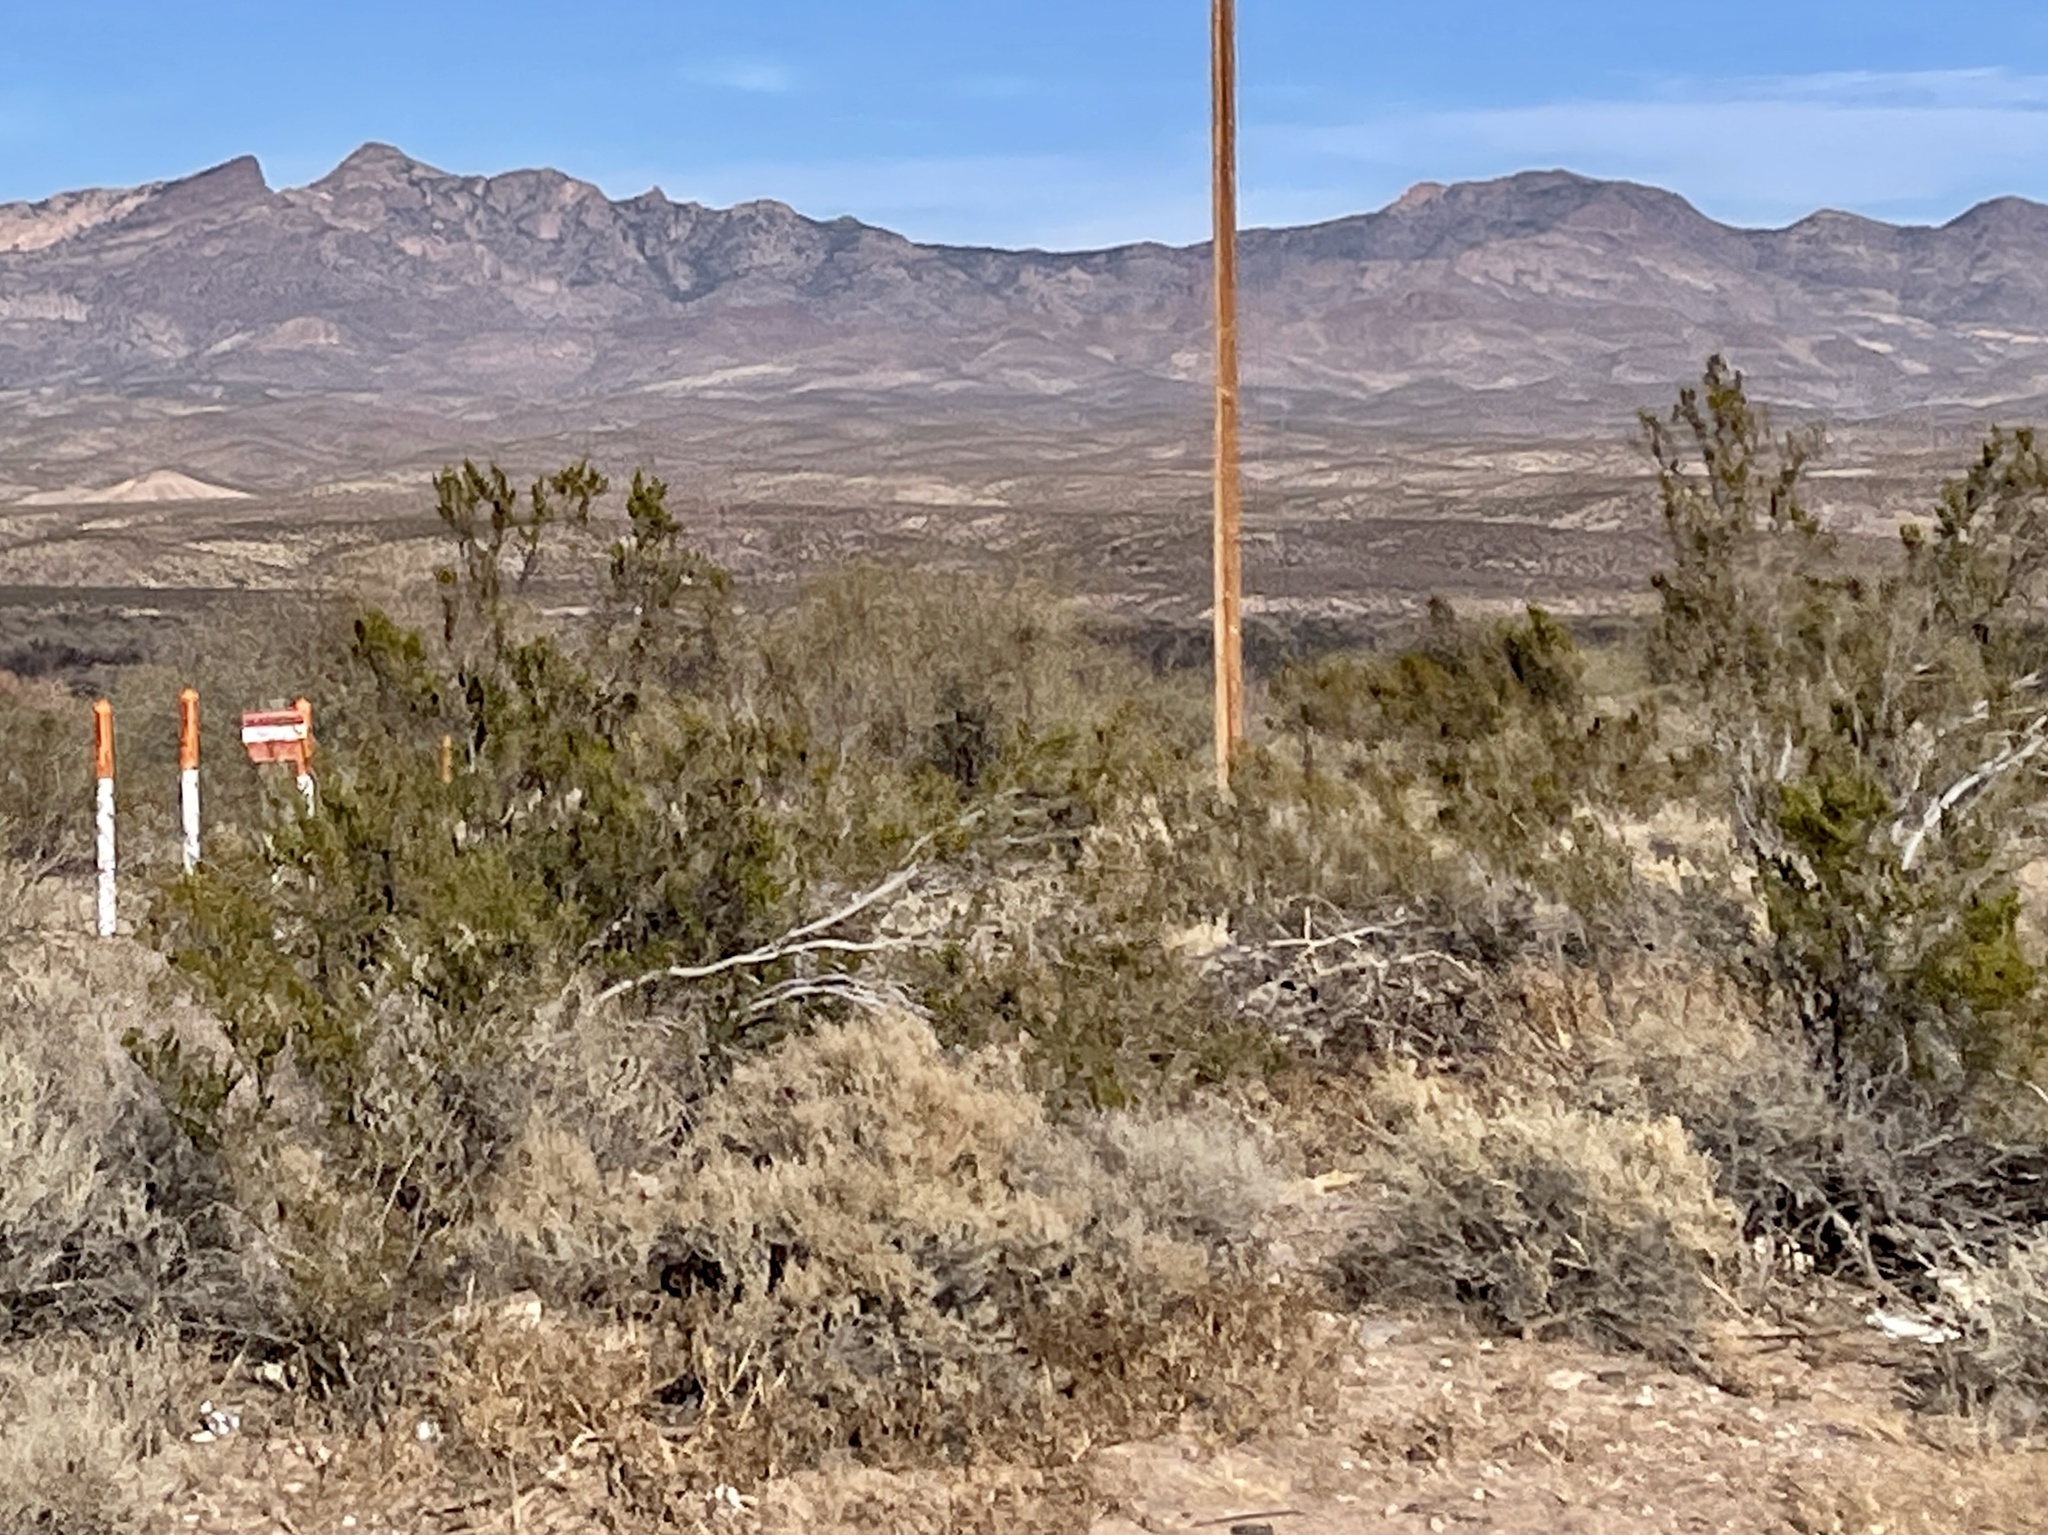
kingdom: Plantae
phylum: Tracheophyta
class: Magnoliopsida
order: Zygophyllales
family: Zygophyllaceae
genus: Larrea
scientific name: Larrea tridentata
